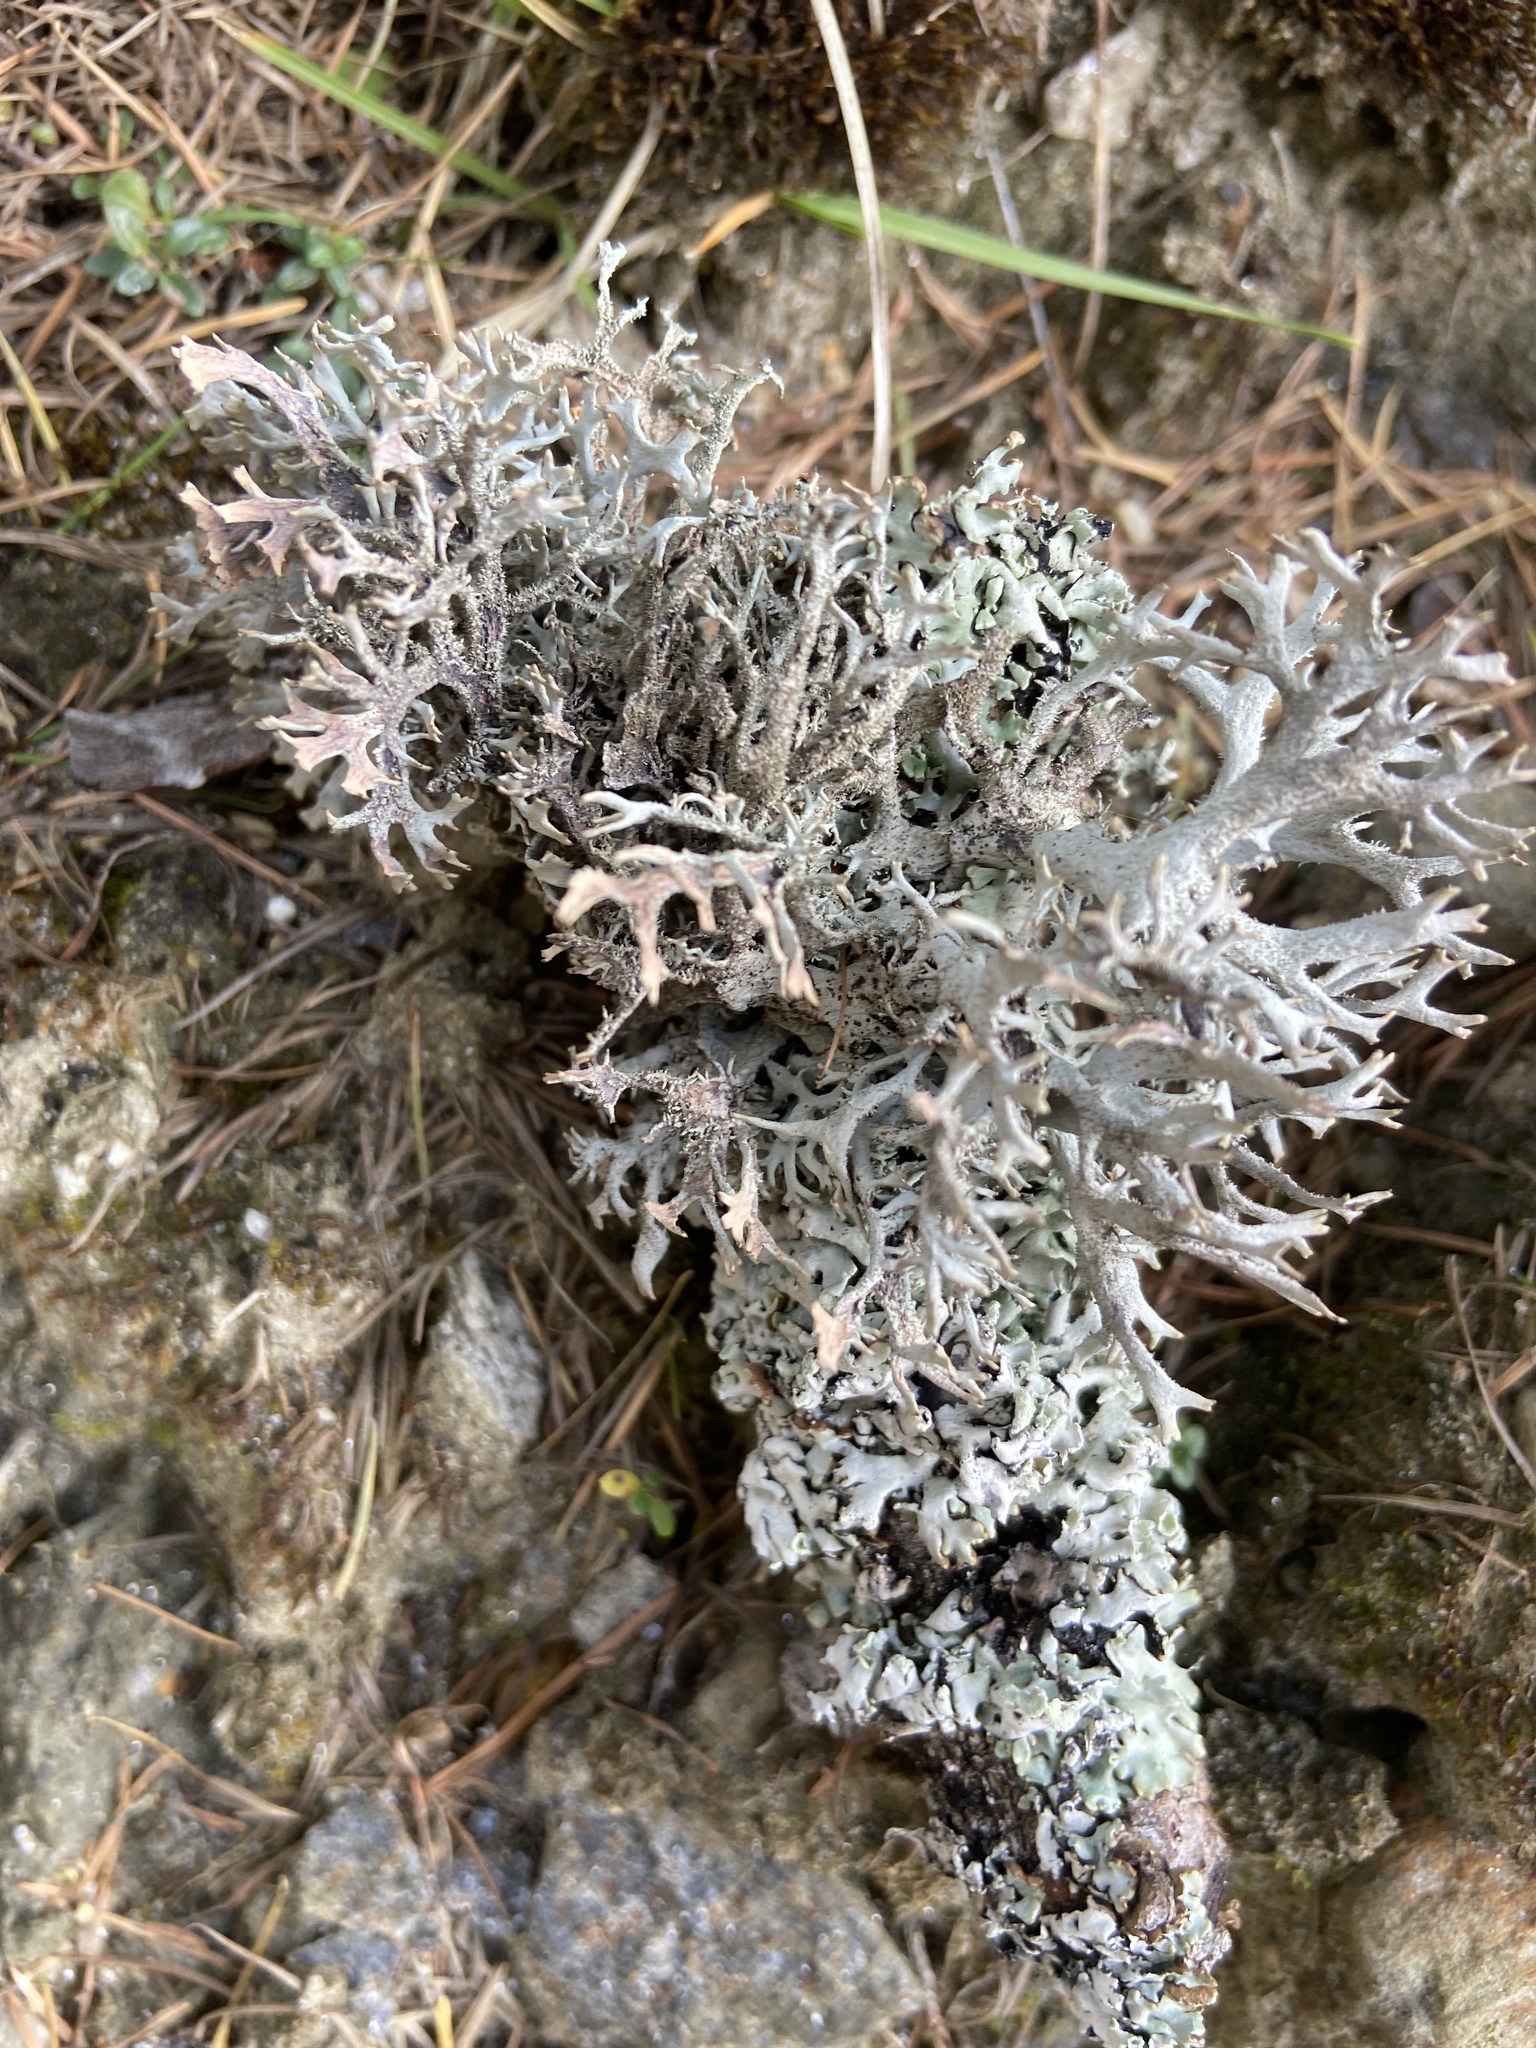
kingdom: Fungi
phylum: Ascomycota
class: Lecanoromycetes
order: Lecanorales
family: Parmeliaceae
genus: Pseudevernia
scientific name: Pseudevernia furfuracea
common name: Tree moss
